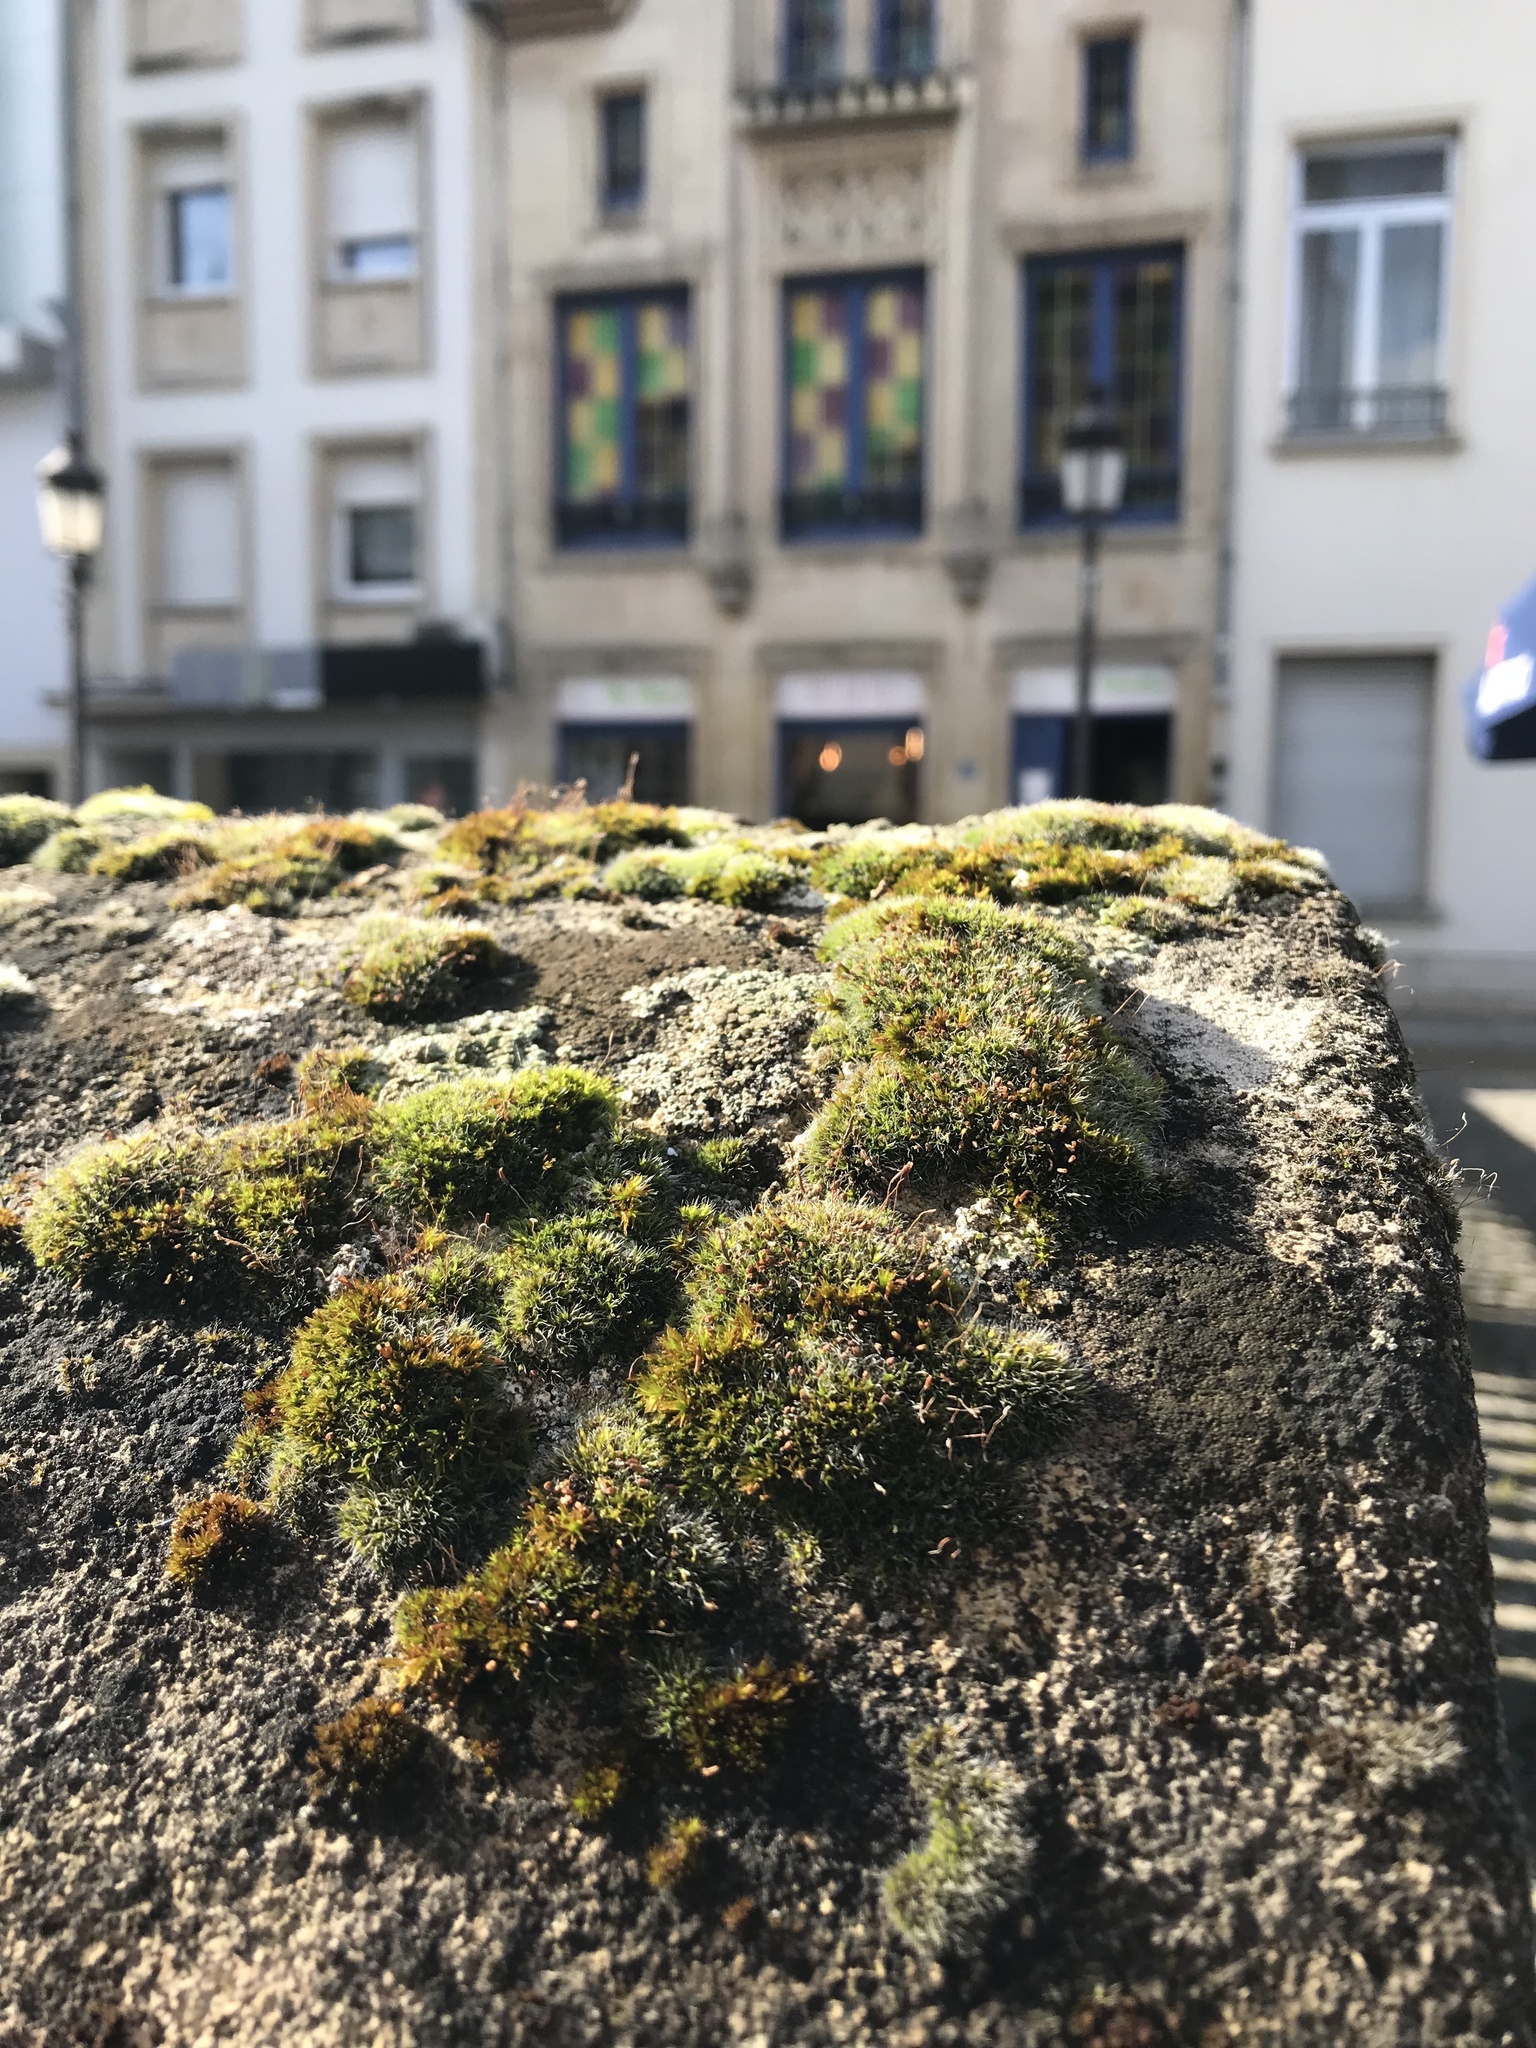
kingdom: Plantae
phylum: Bryophyta
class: Bryopsida
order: Grimmiales
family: Grimmiaceae
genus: Grimmia
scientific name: Grimmia pulvinata
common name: Grey-cushioned grimmia
